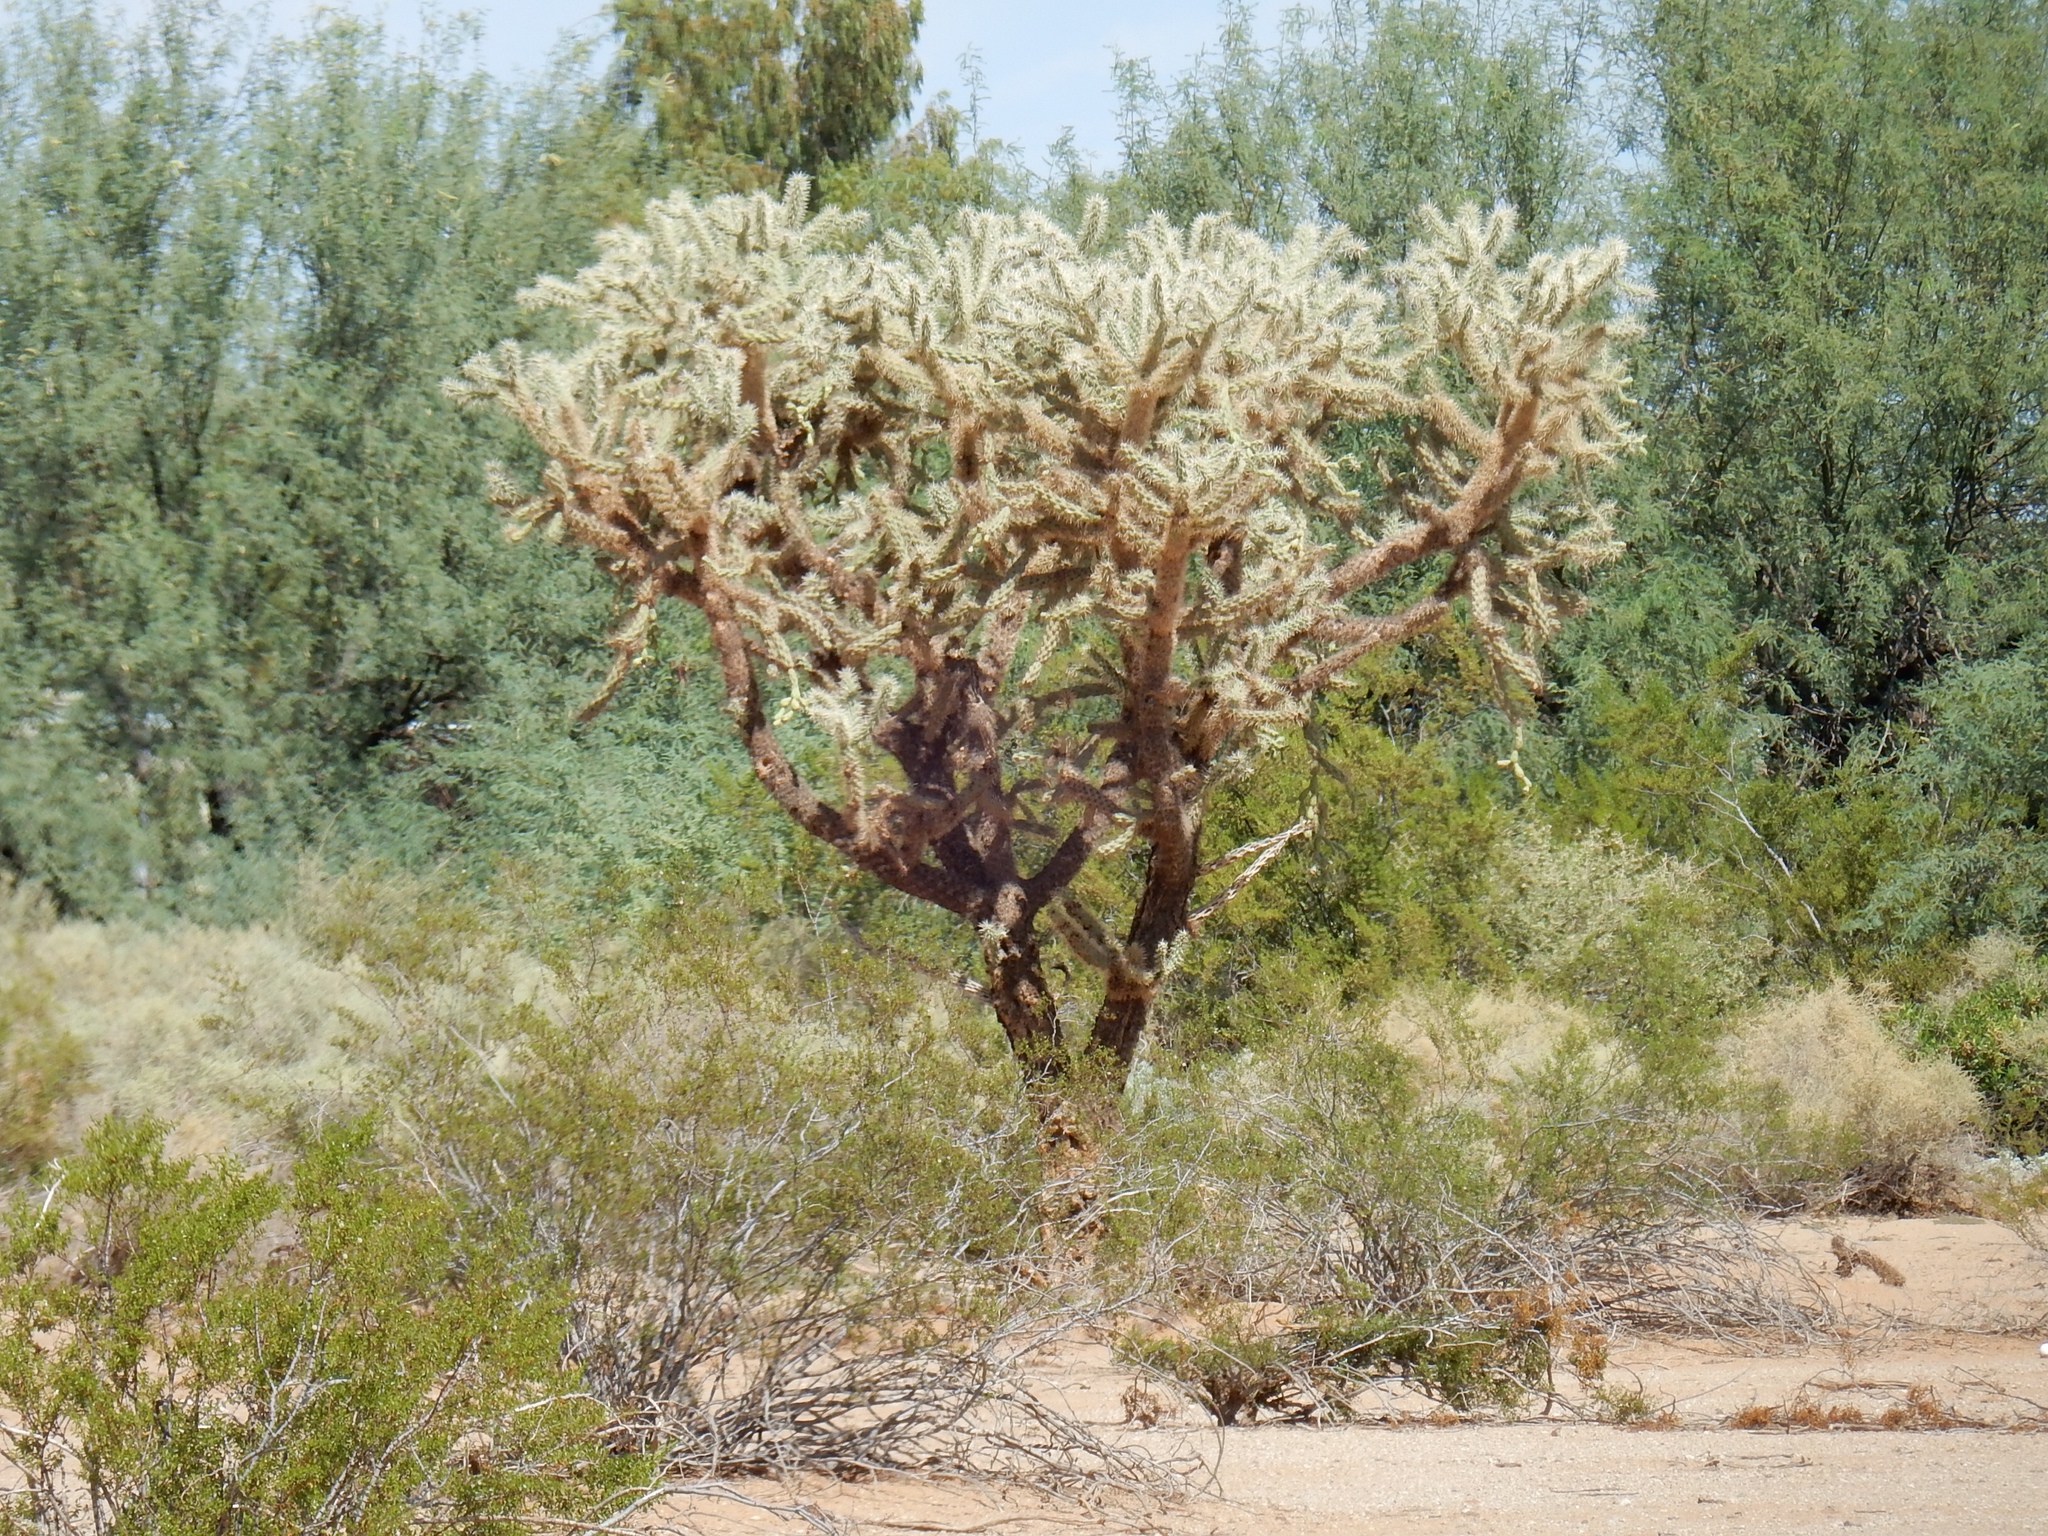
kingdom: Plantae
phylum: Tracheophyta
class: Magnoliopsida
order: Caryophyllales
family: Cactaceae
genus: Cylindropuntia
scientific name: Cylindropuntia fulgida
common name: Jumping cholla
